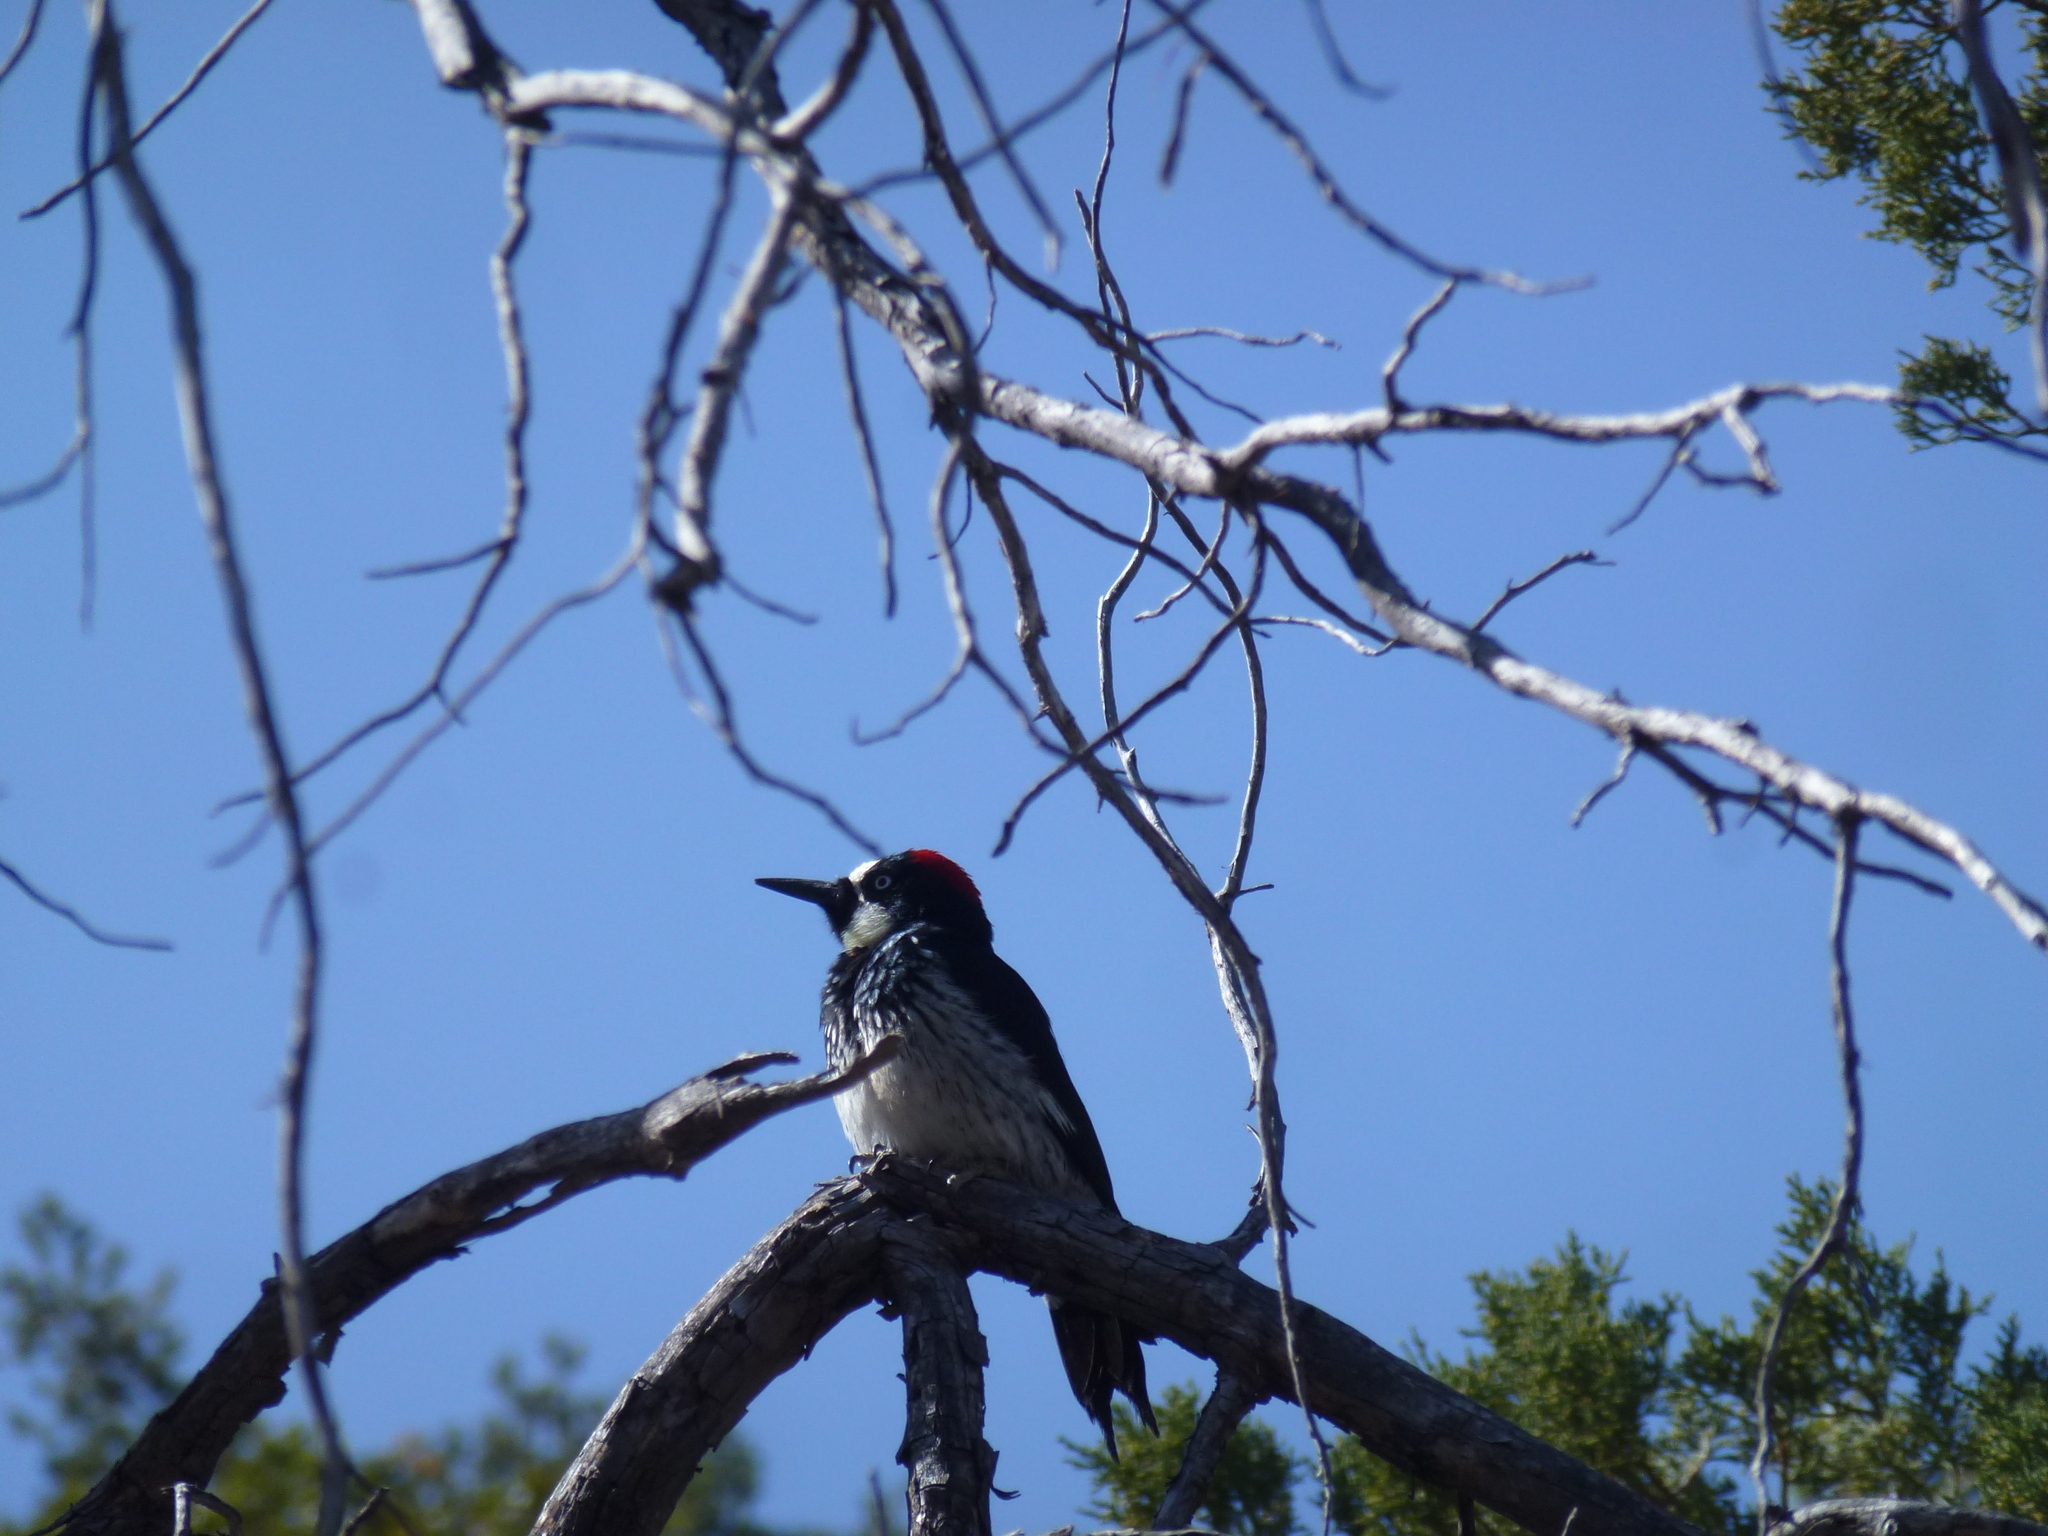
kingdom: Animalia
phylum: Chordata
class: Aves
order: Piciformes
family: Picidae
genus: Melanerpes
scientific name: Melanerpes formicivorus
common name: Acorn woodpecker
